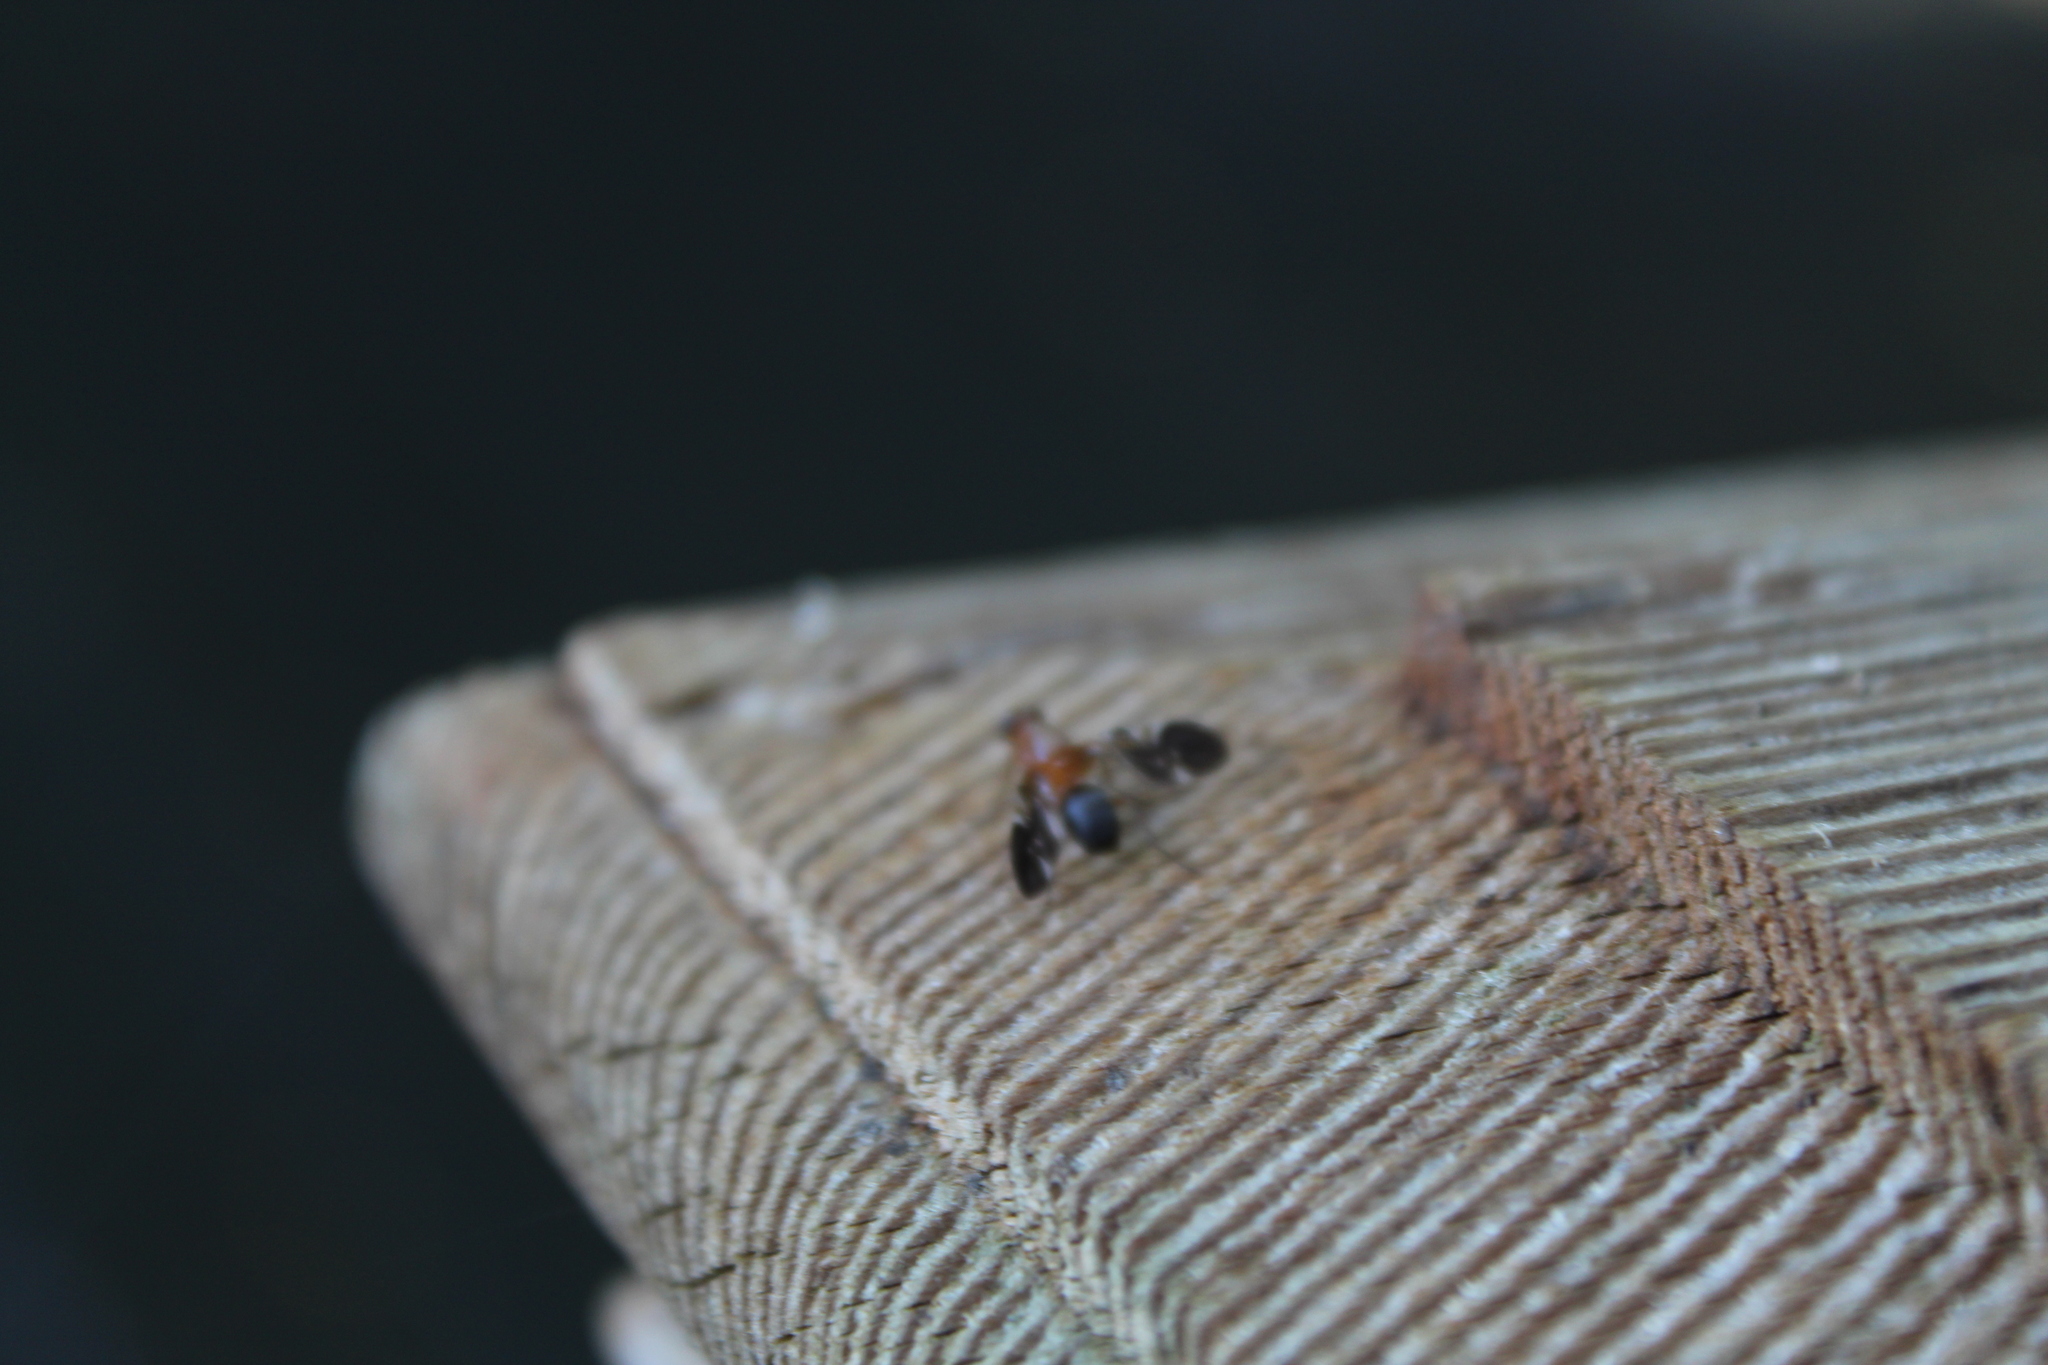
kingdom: Animalia
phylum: Arthropoda
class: Insecta
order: Diptera
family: Ulidiidae
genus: Delphinia
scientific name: Delphinia picta
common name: Common picture-winged fly
